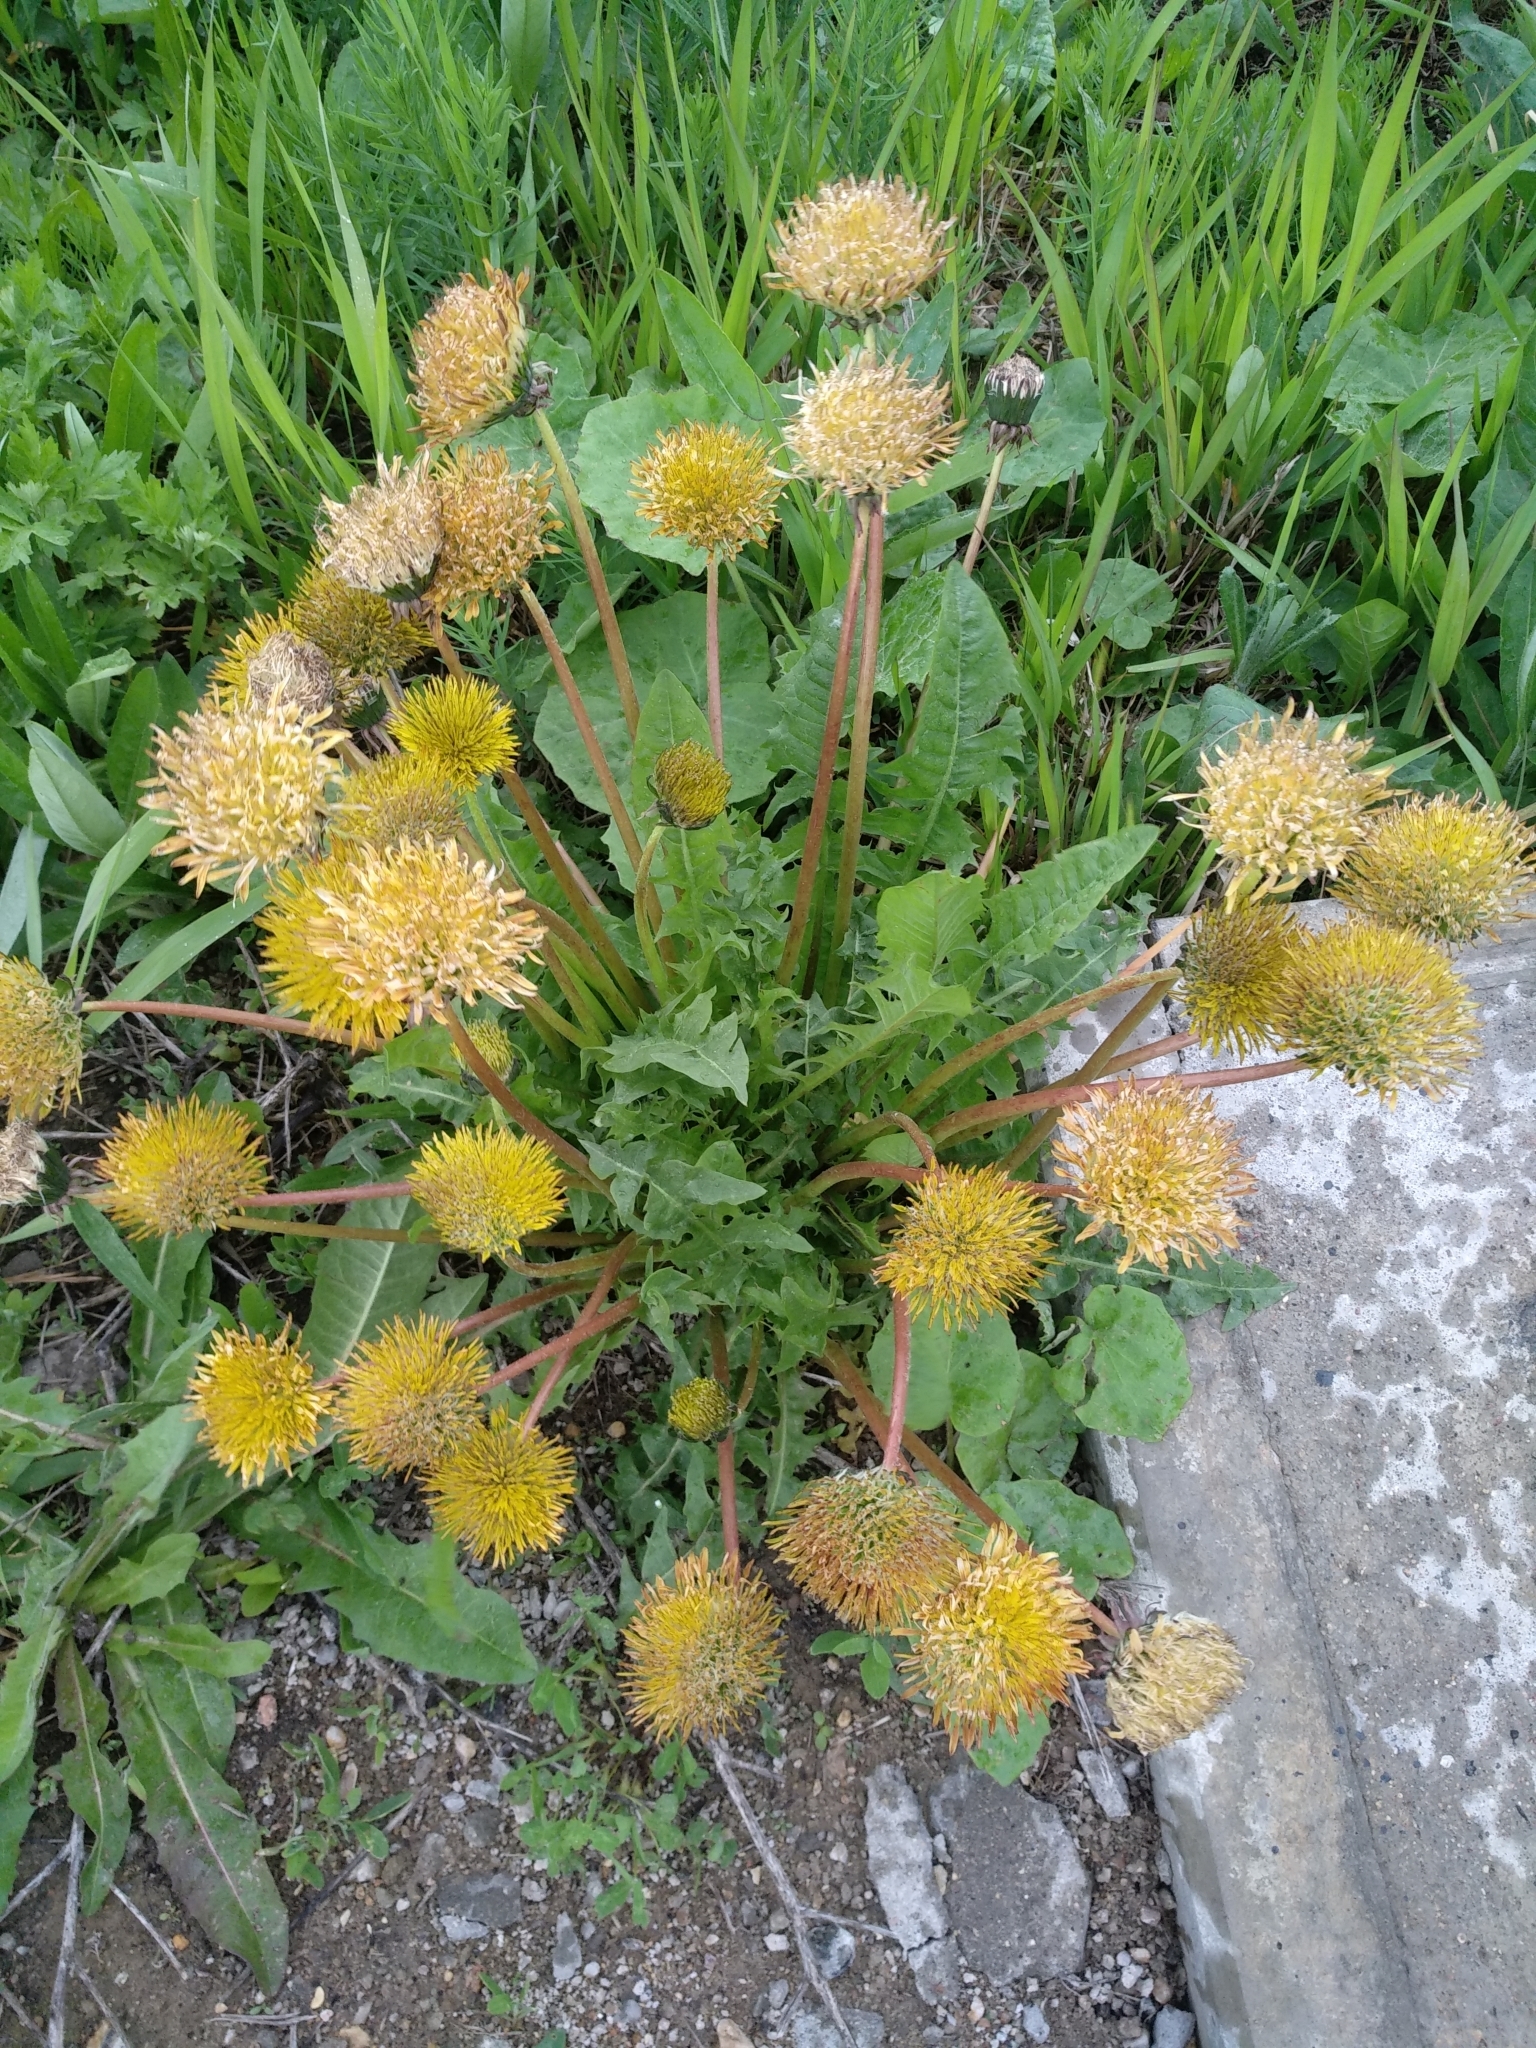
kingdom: Plantae
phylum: Tracheophyta
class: Magnoliopsida
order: Asterales
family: Asteraceae
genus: Taraxacum
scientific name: Taraxacum officinale
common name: Common dandelion
